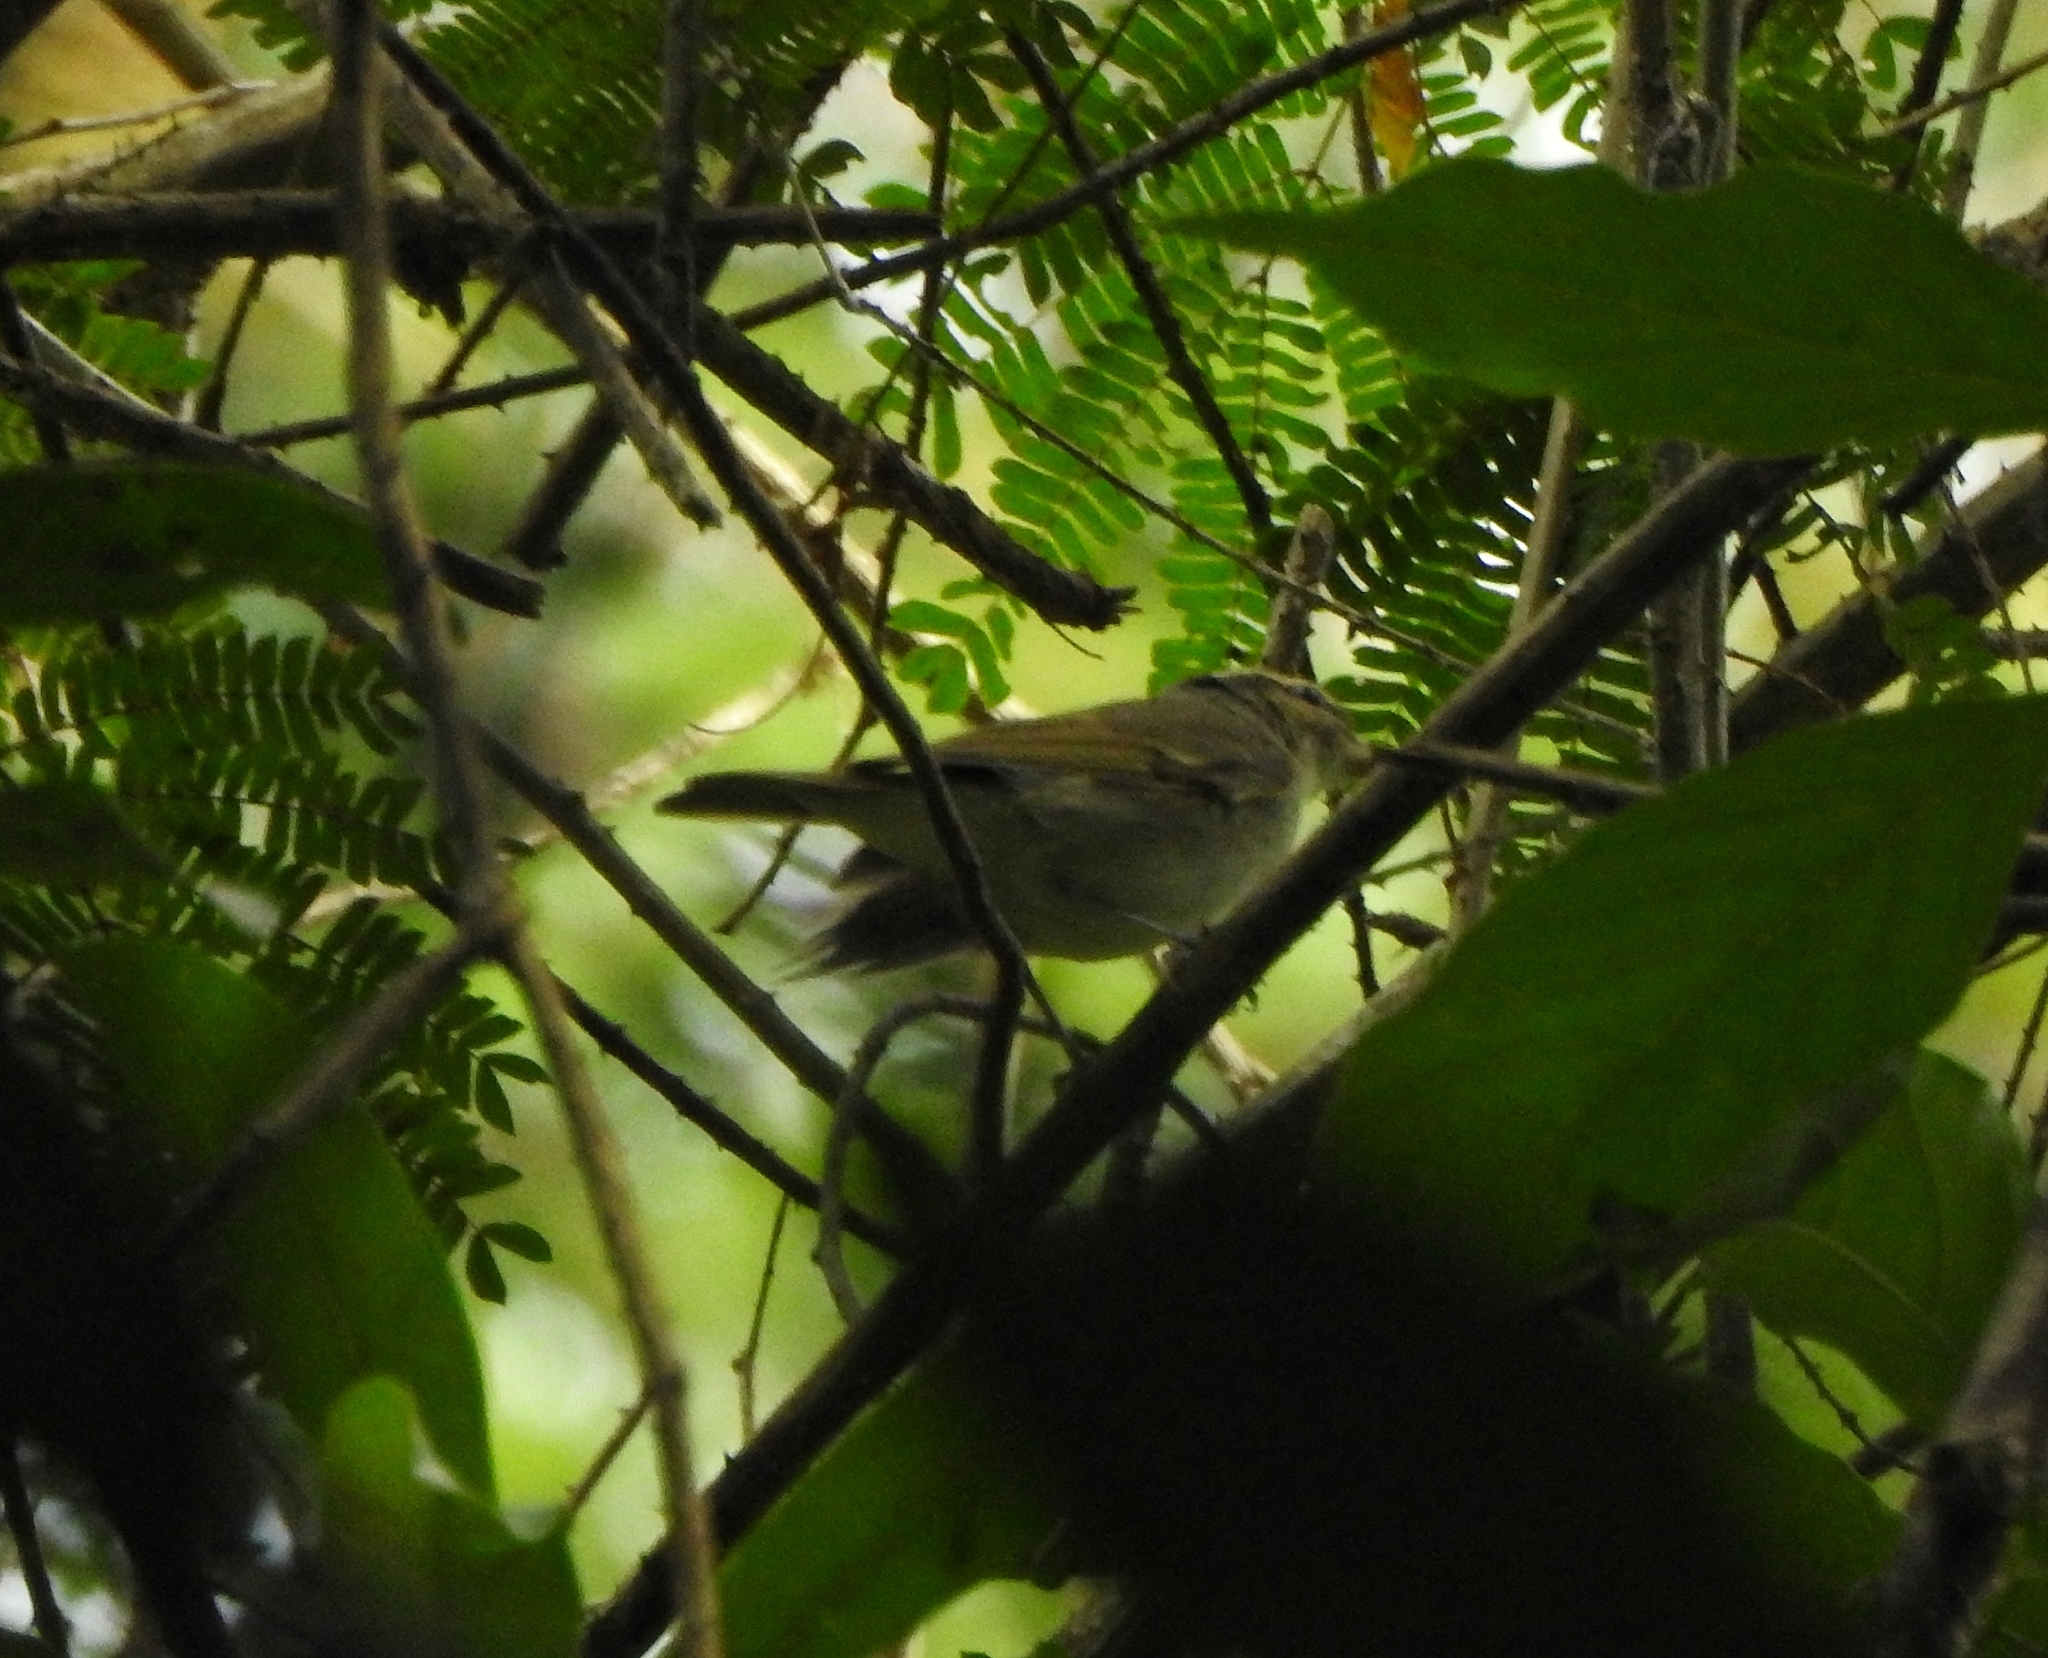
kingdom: Animalia
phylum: Chordata
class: Aves
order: Passeriformes
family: Phylloscopidae
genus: Phylloscopus
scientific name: Phylloscopus magnirostris
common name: Large-billed leaf warbler
